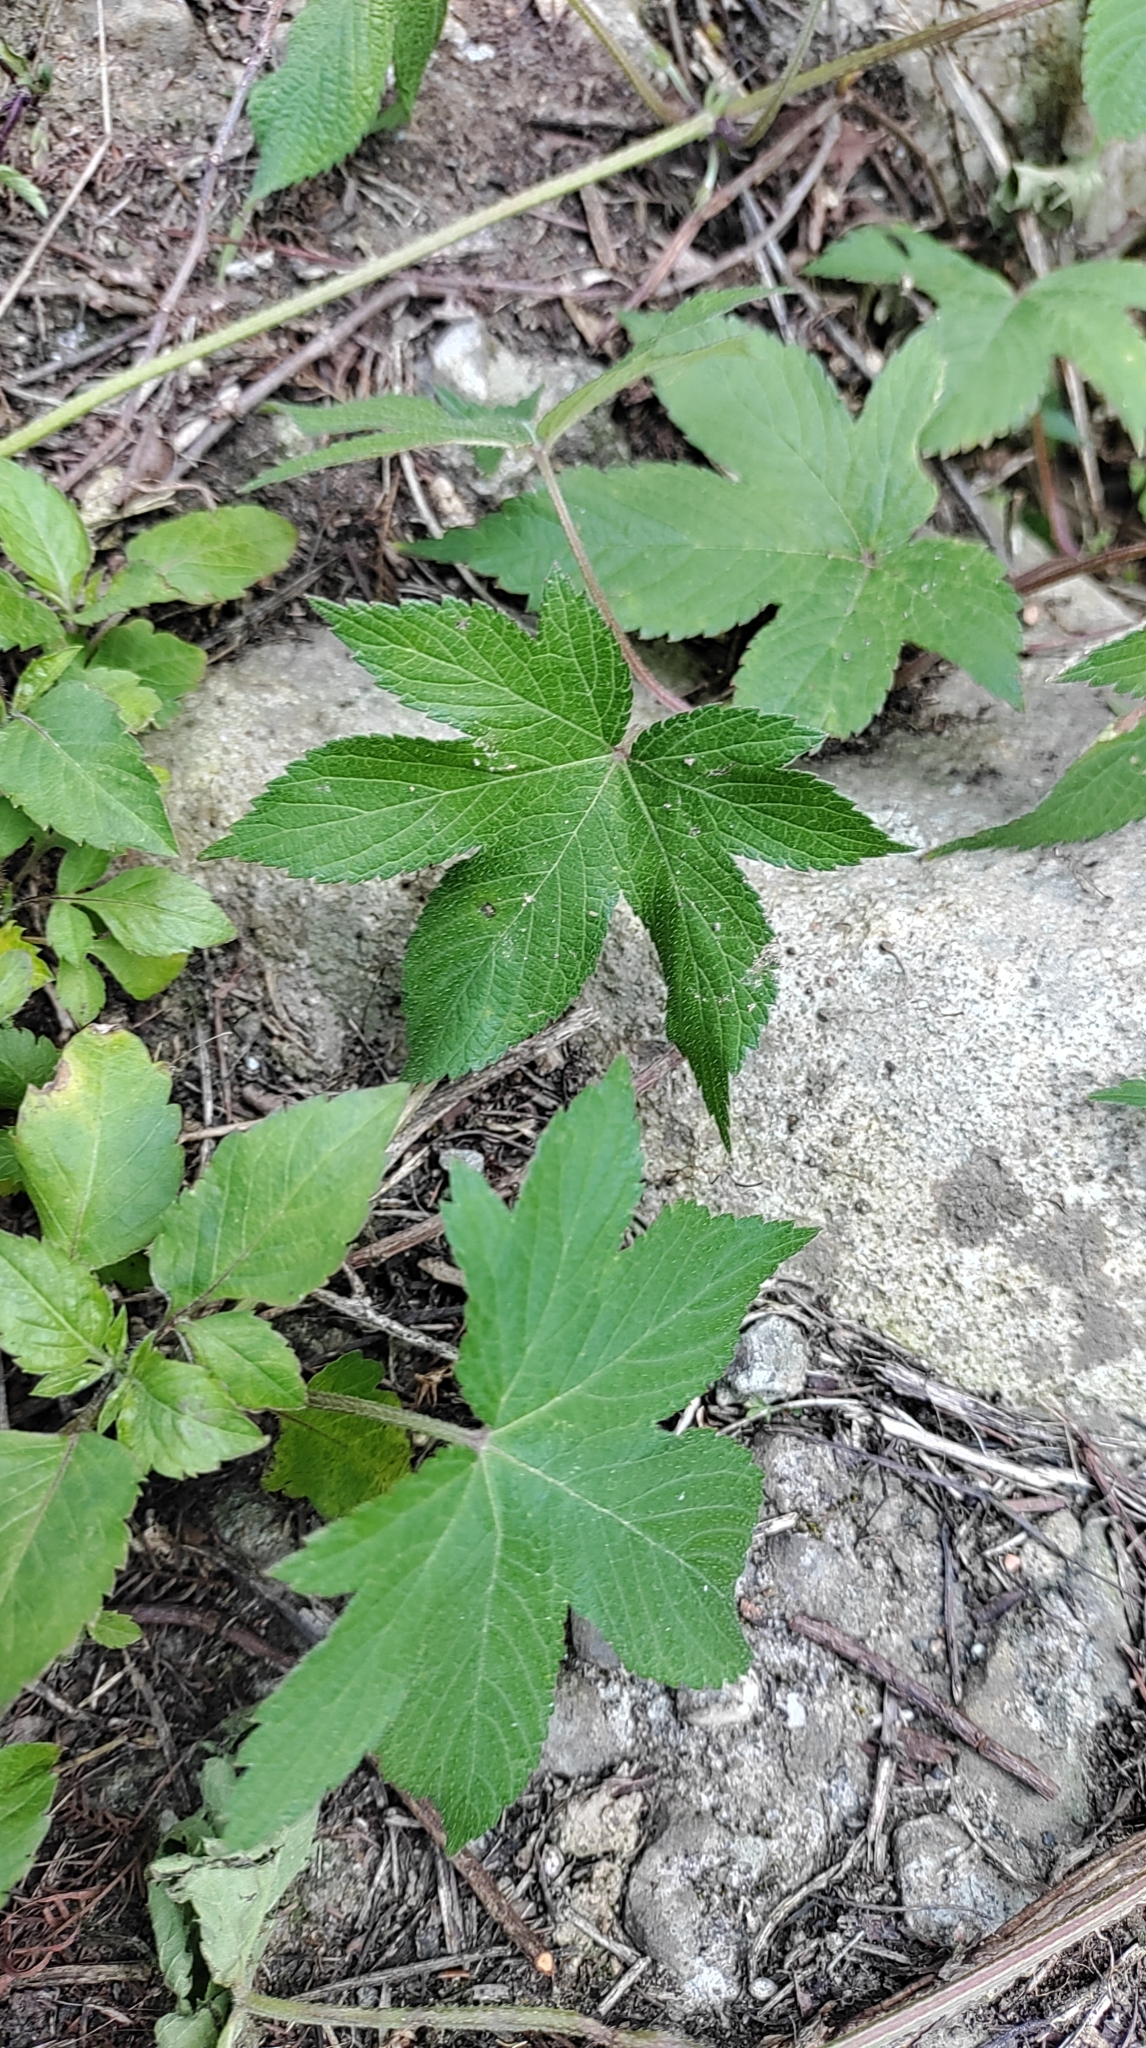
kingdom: Plantae
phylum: Tracheophyta
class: Magnoliopsida
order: Rosales
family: Cannabaceae
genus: Humulus
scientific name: Humulus scandens
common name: Japanese hop
